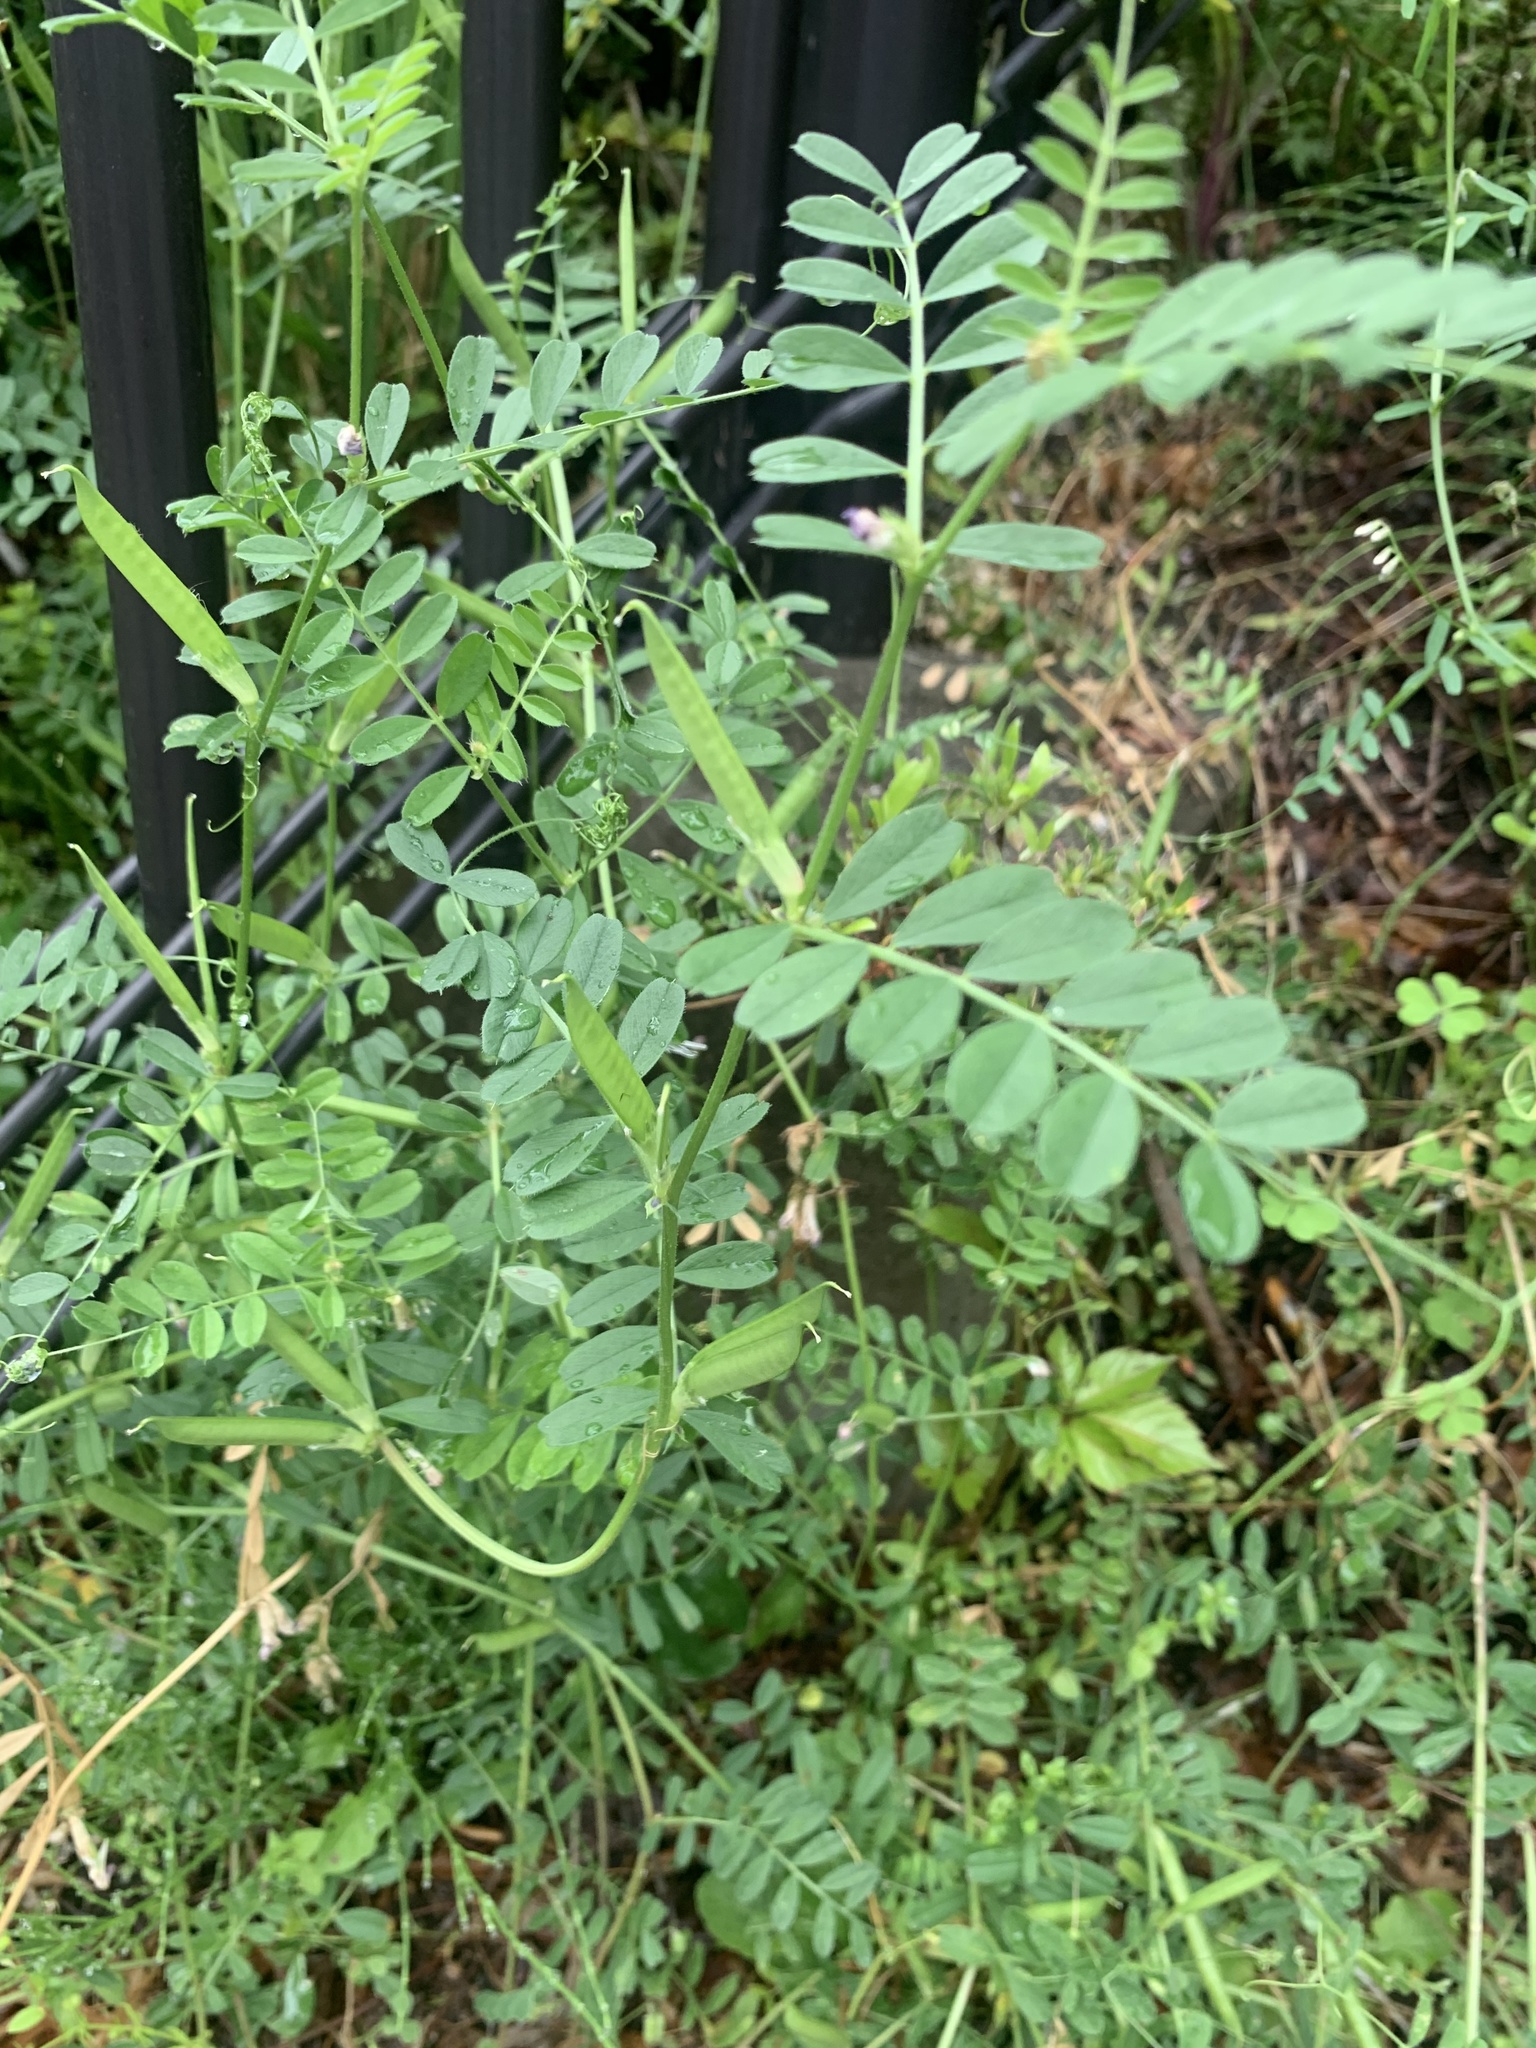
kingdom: Plantae
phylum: Tracheophyta
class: Magnoliopsida
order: Fabales
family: Fabaceae
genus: Vicia
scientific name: Vicia sativa
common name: Garden vetch
